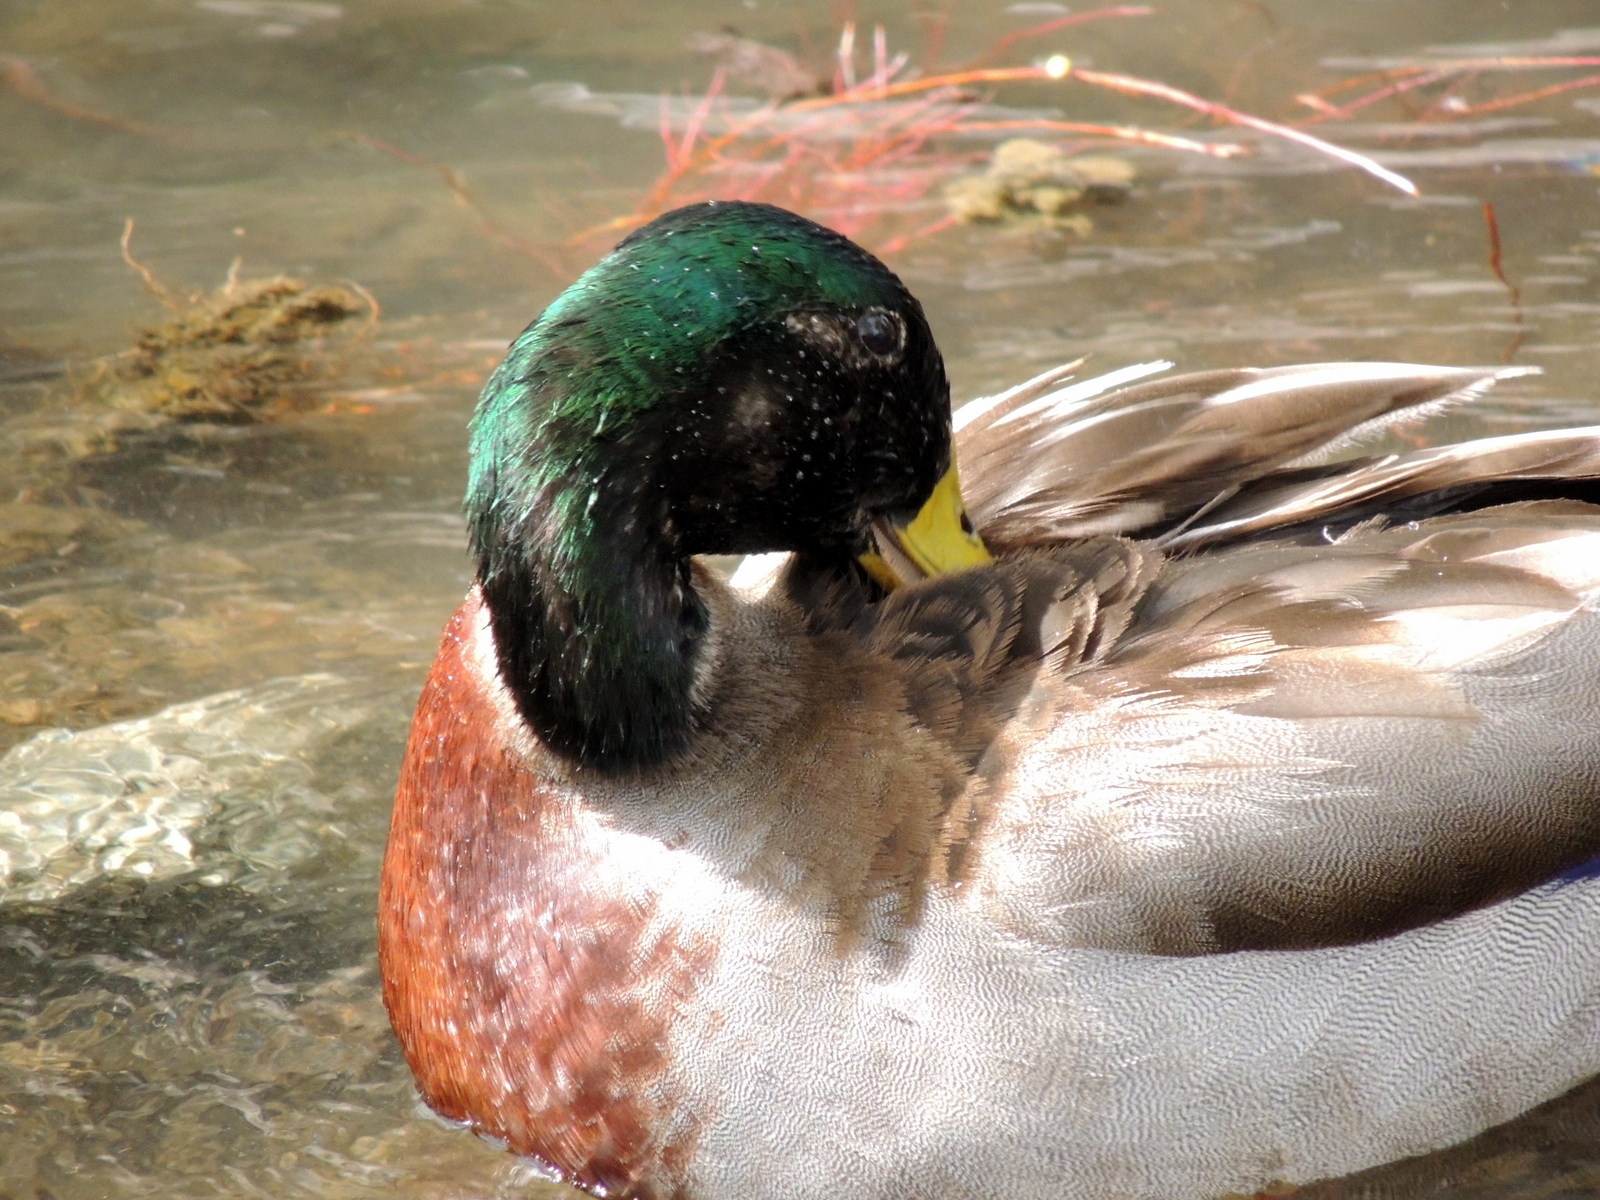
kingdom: Animalia
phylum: Chordata
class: Aves
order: Anseriformes
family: Anatidae
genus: Anas
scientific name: Anas platyrhynchos
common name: Mallard
